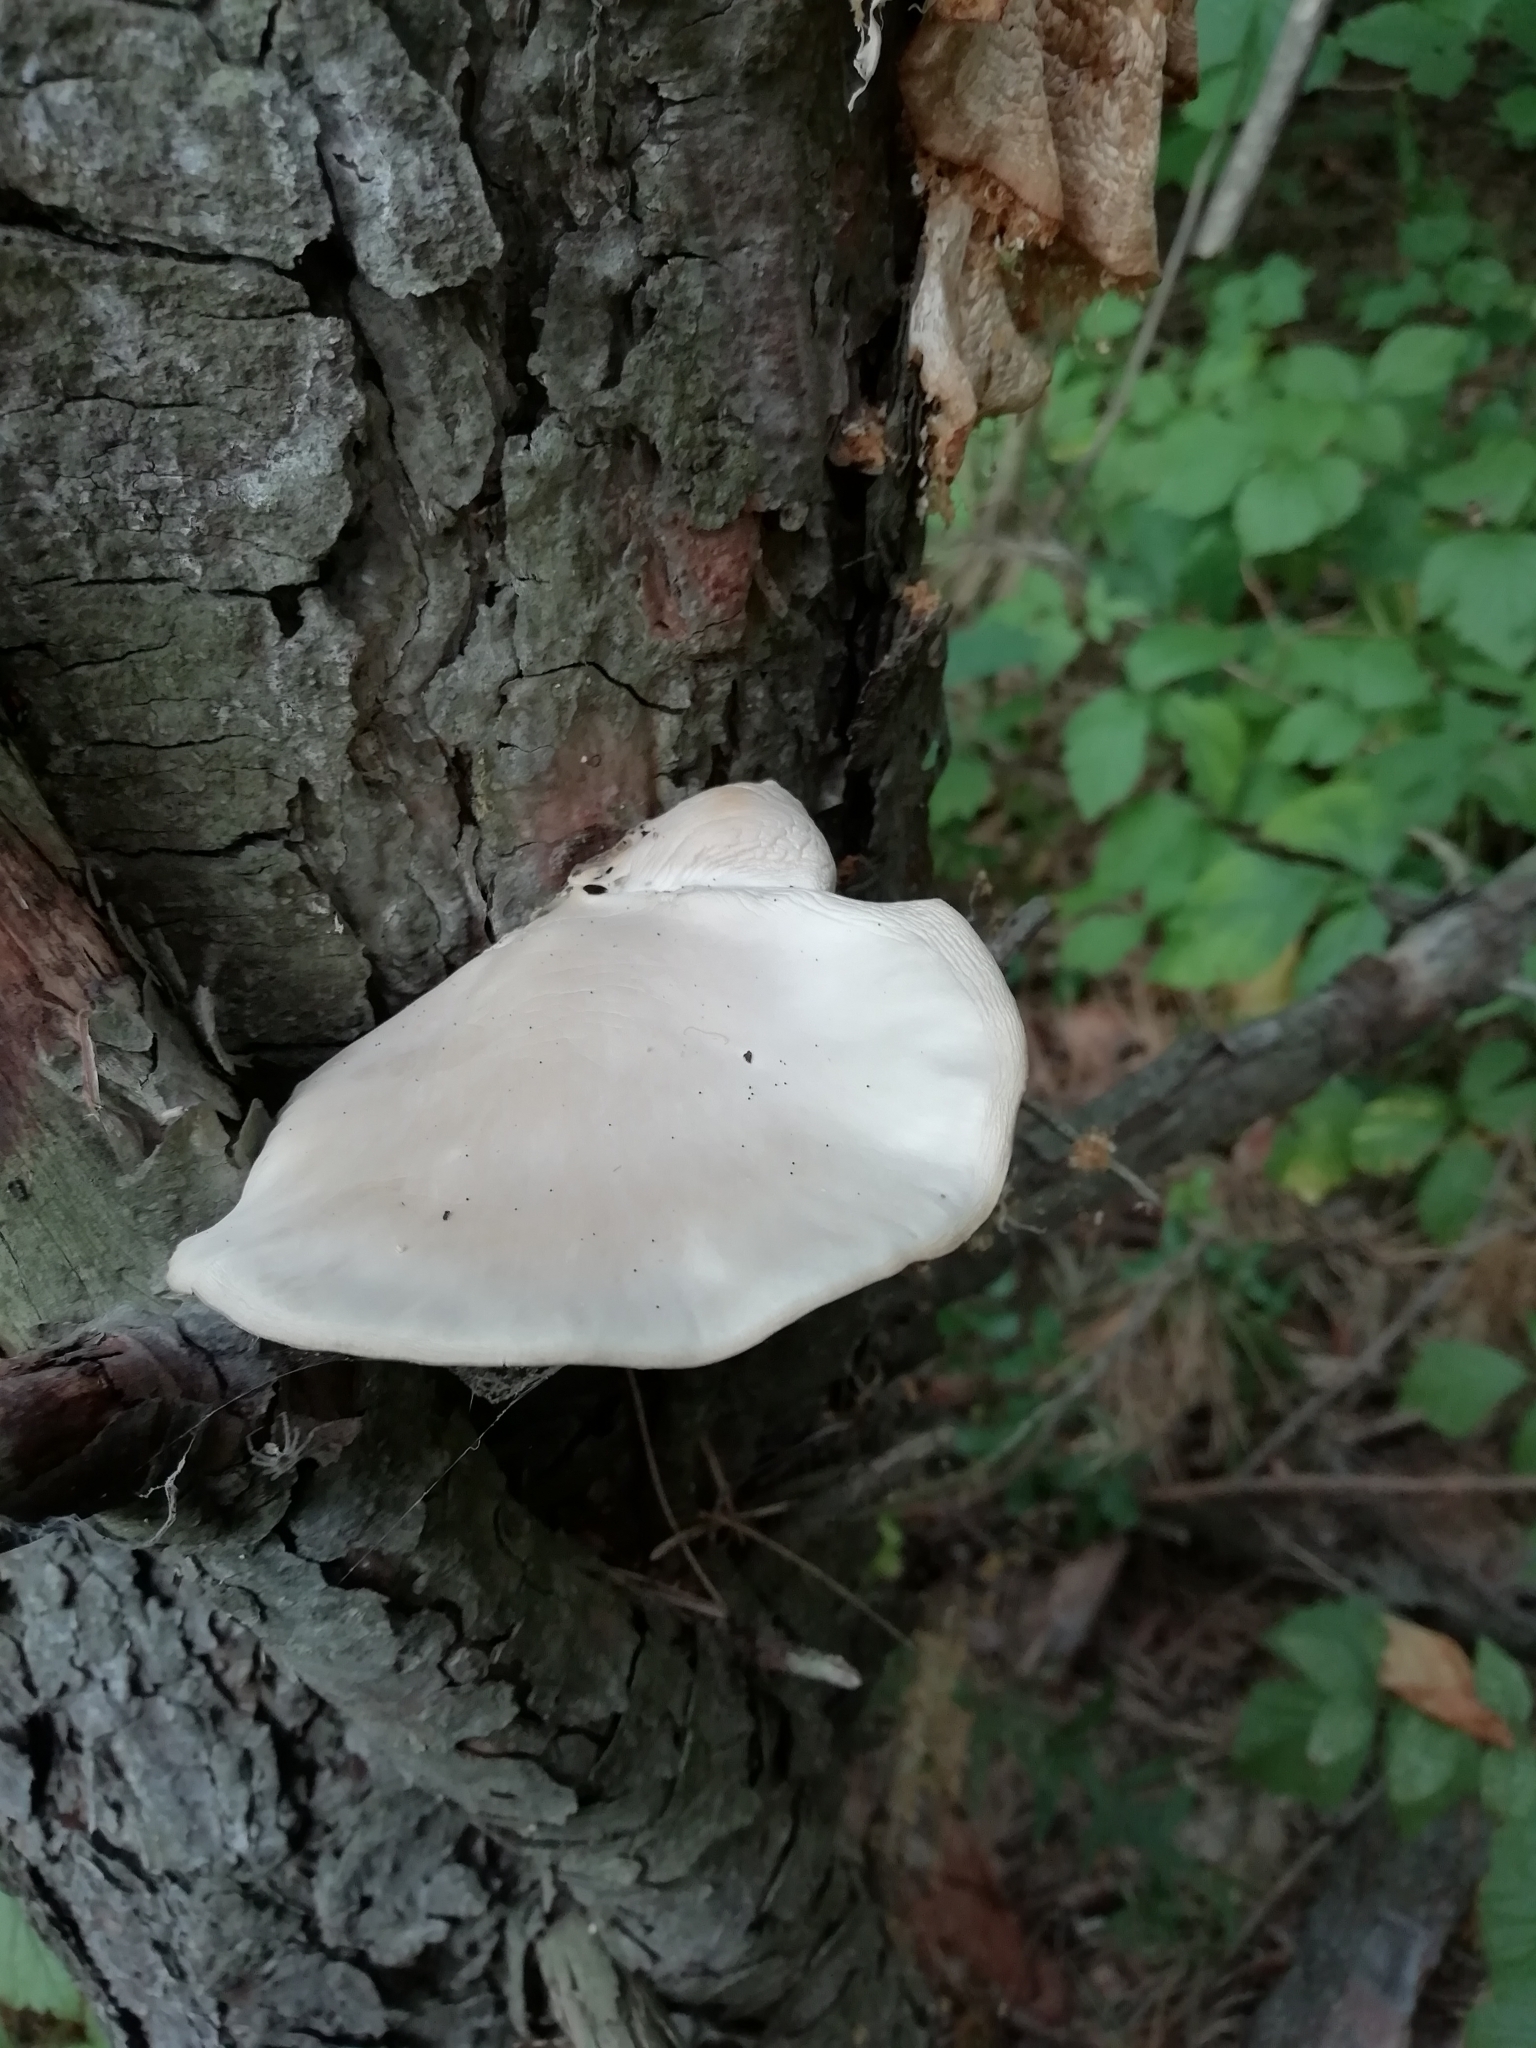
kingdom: Fungi
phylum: Basidiomycota
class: Agaricomycetes
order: Agaricales
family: Pleurotaceae
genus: Pleurotus
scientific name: Pleurotus pulmonarius
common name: Pale oyster
